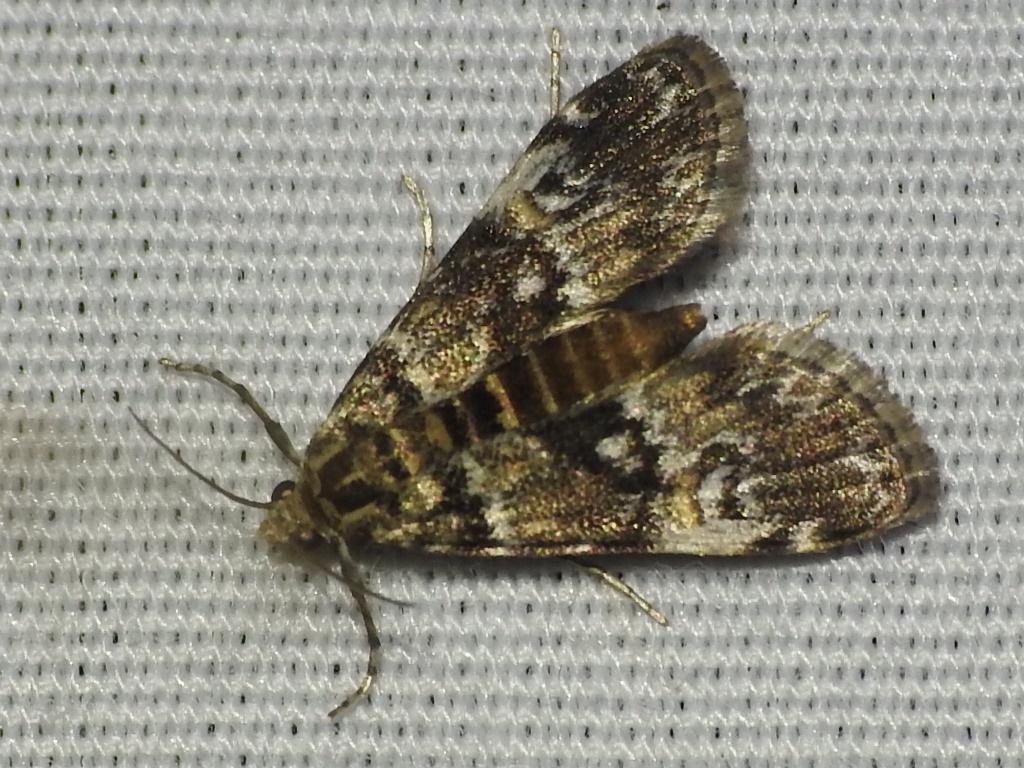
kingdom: Animalia
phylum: Arthropoda
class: Insecta
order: Lepidoptera
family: Crambidae
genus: Elophila
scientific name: Elophila obliteralis
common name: Waterlily leafcutter moth
